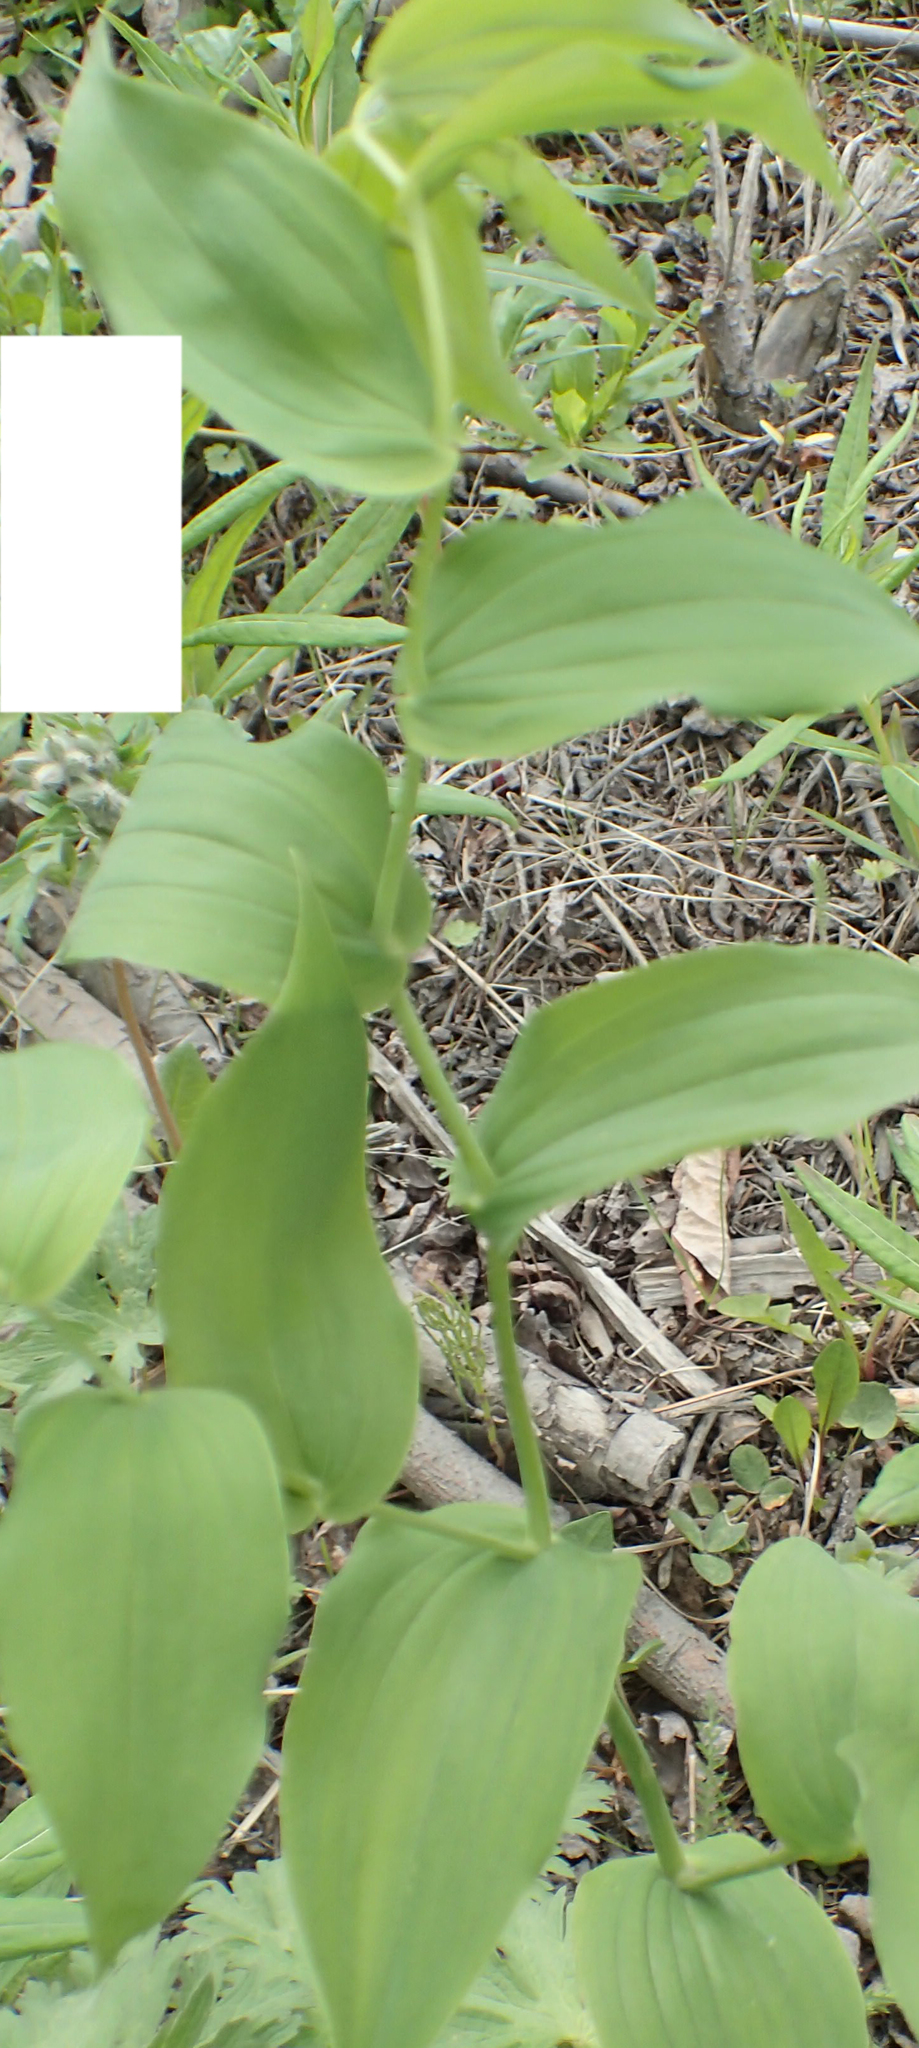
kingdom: Plantae
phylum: Tracheophyta
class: Liliopsida
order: Liliales
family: Liliaceae
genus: Streptopus
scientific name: Streptopus amplexifolius
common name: Clasp twisted stalk
